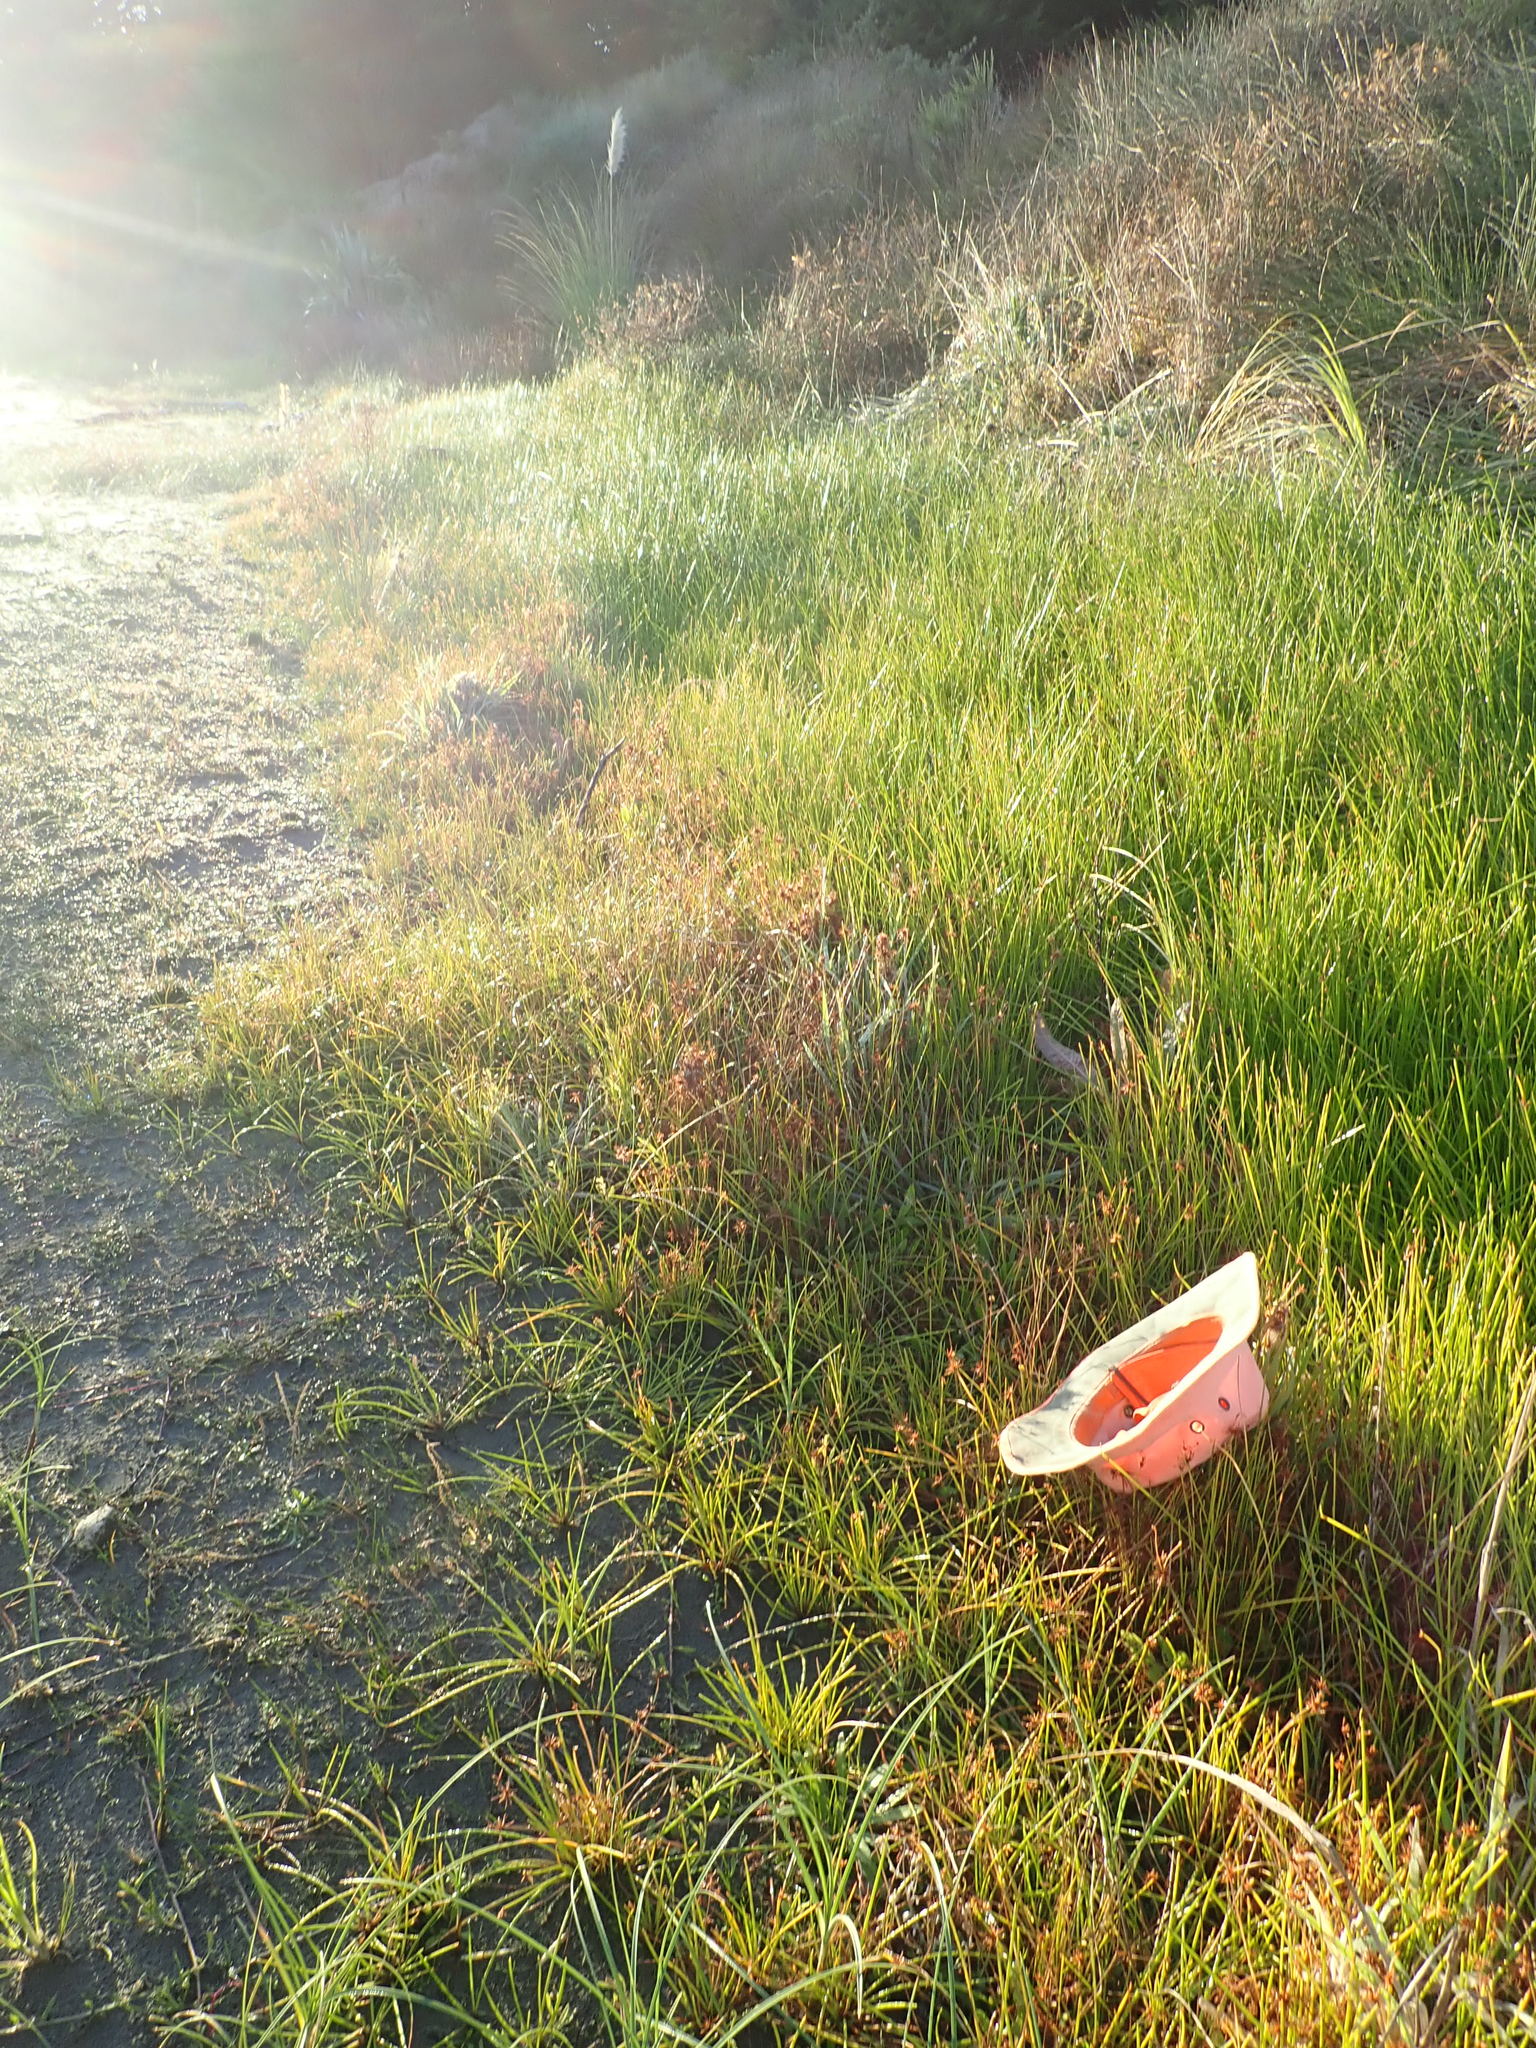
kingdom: Plantae
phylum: Tracheophyta
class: Liliopsida
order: Poales
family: Cyperaceae
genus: Isolepis
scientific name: Isolepis prolifera
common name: Proliferating bulrush
